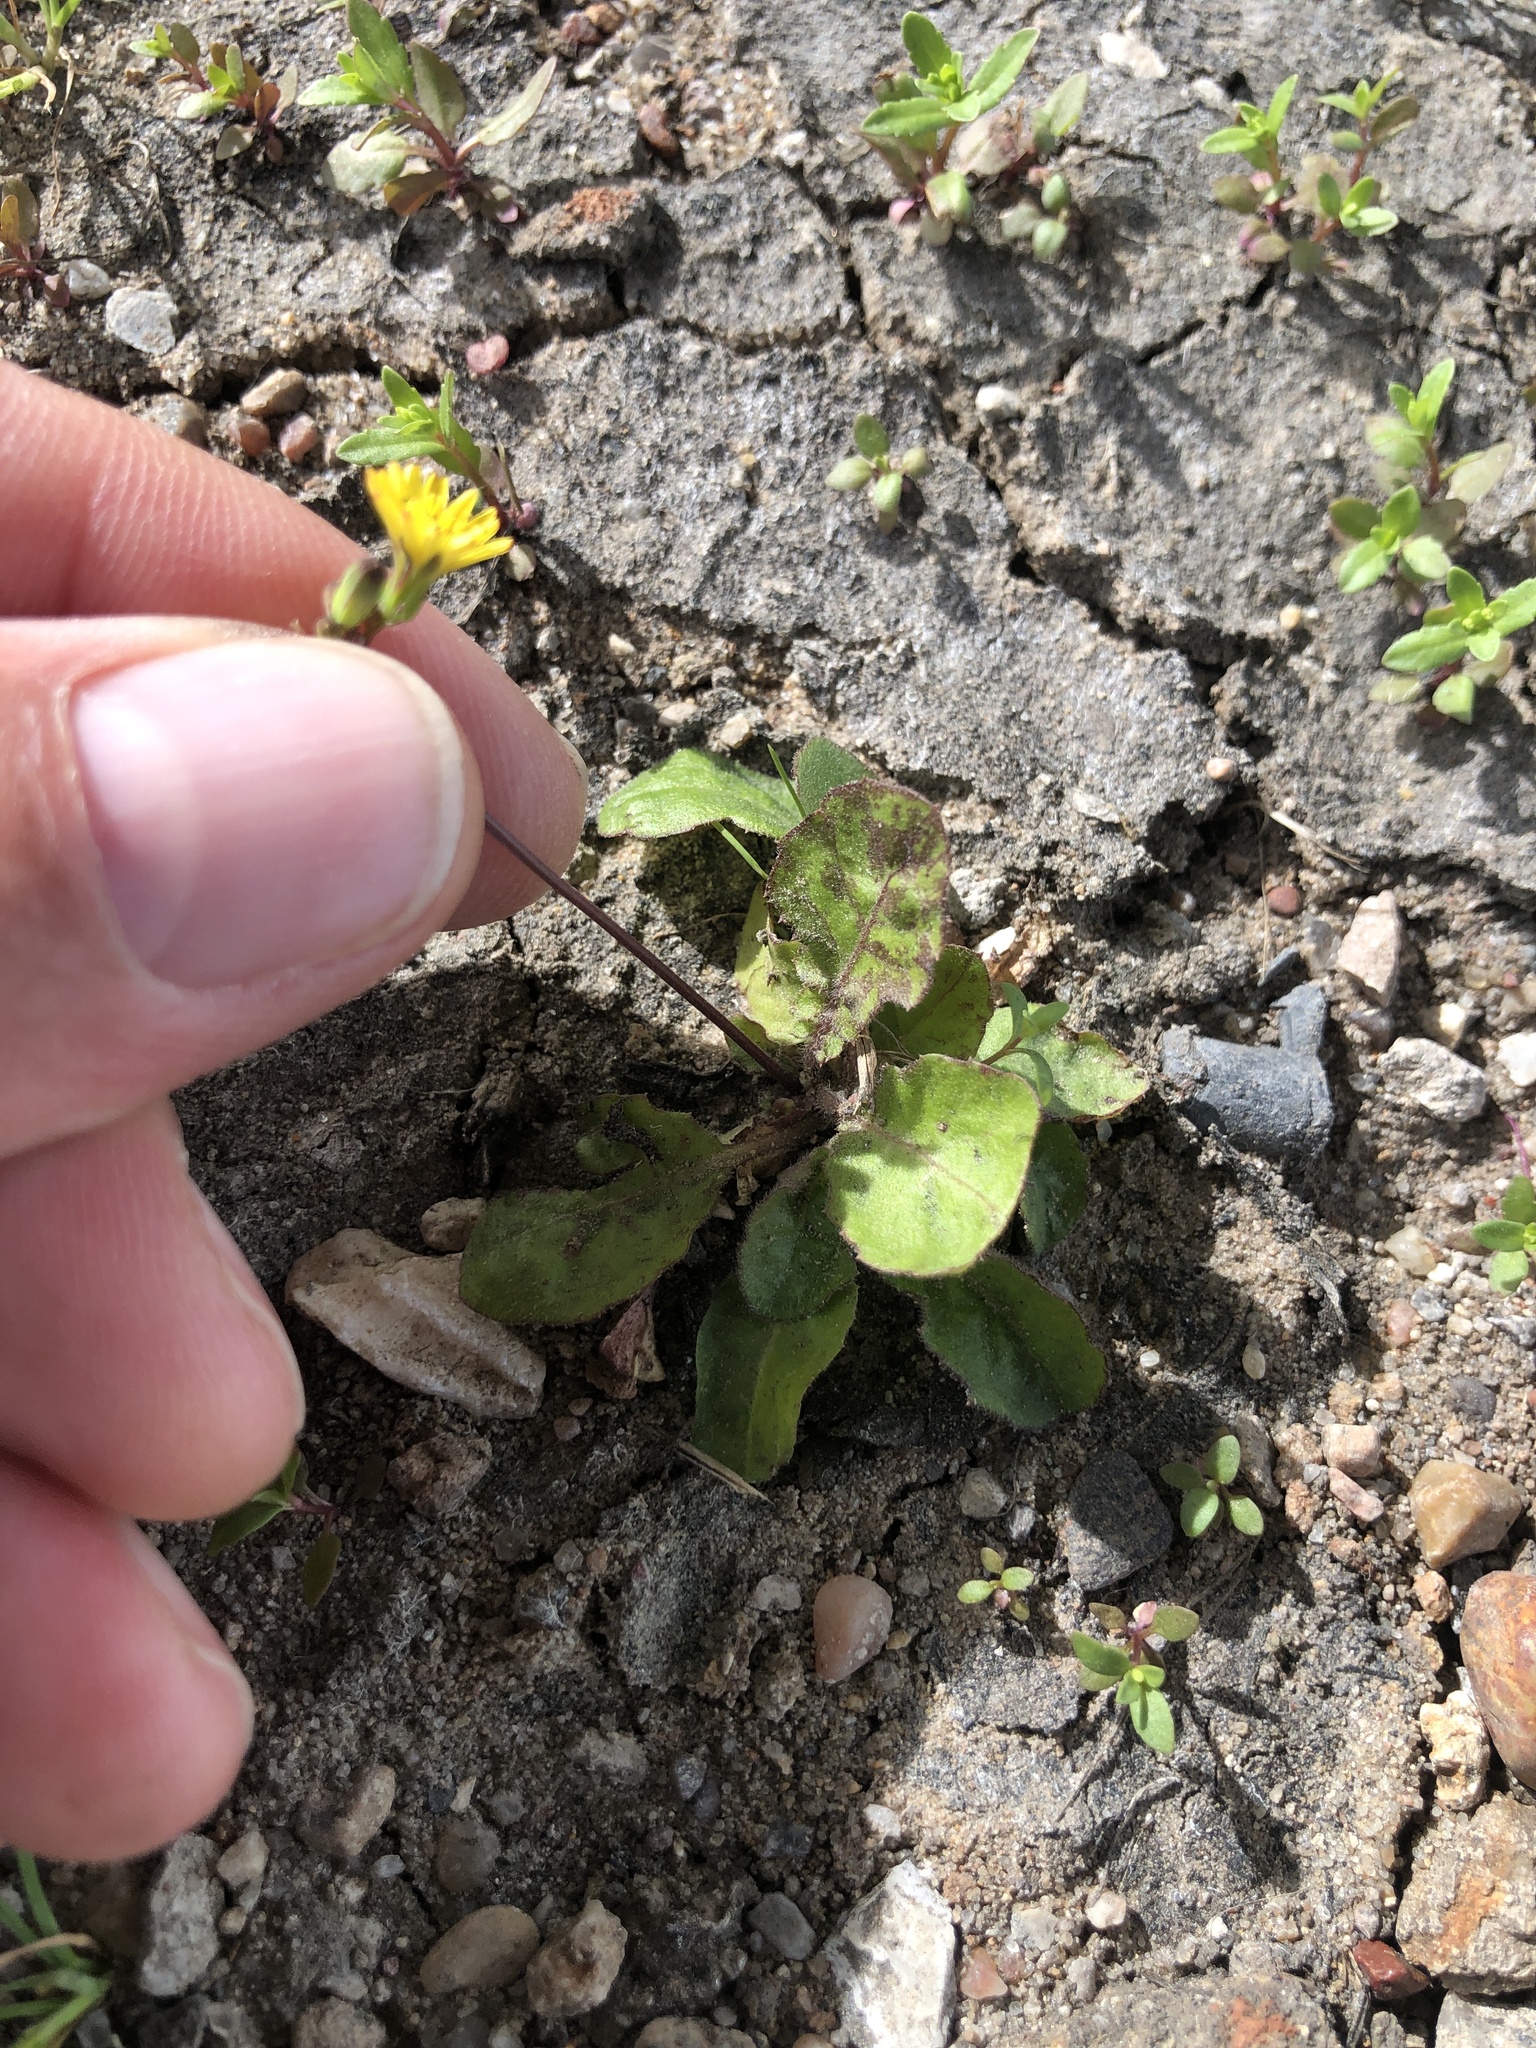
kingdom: Plantae
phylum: Tracheophyta
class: Magnoliopsida
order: Asterales
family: Asteraceae
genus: Youngia
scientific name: Youngia japonica
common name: Oriental false hawksbeard
